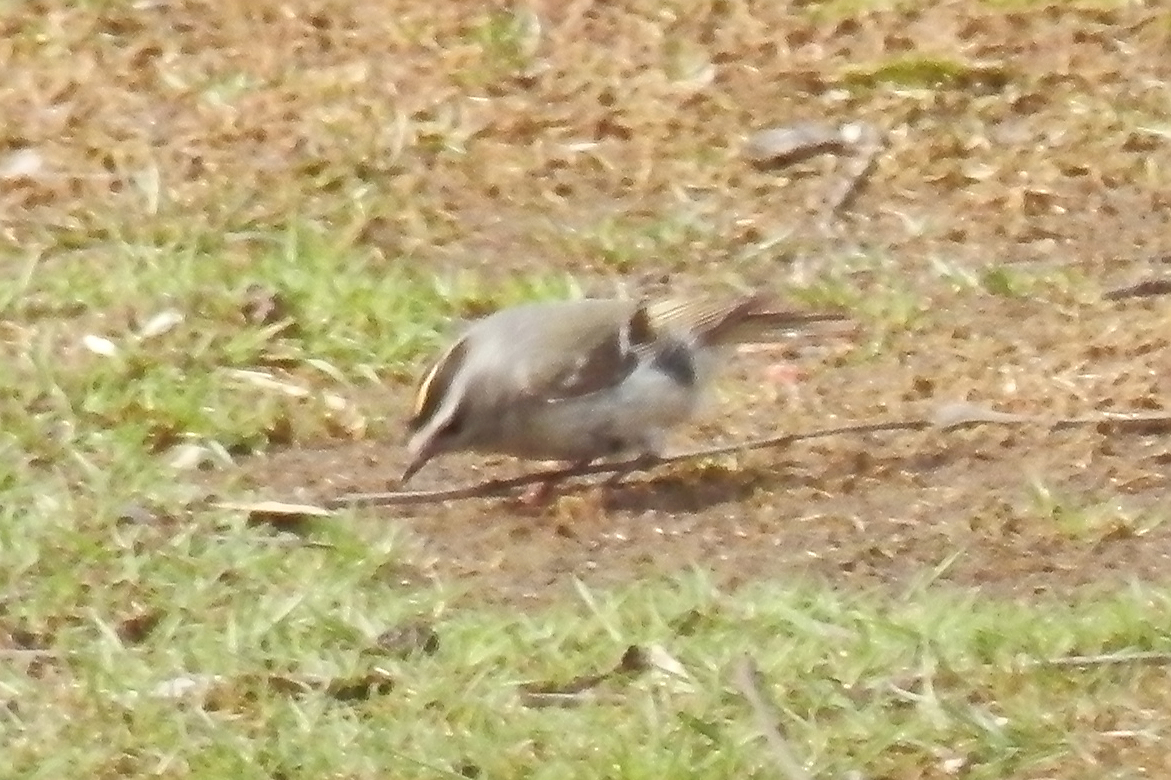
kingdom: Animalia
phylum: Chordata
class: Aves
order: Passeriformes
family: Regulidae
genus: Regulus
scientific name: Regulus satrapa
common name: Golden-crowned kinglet
